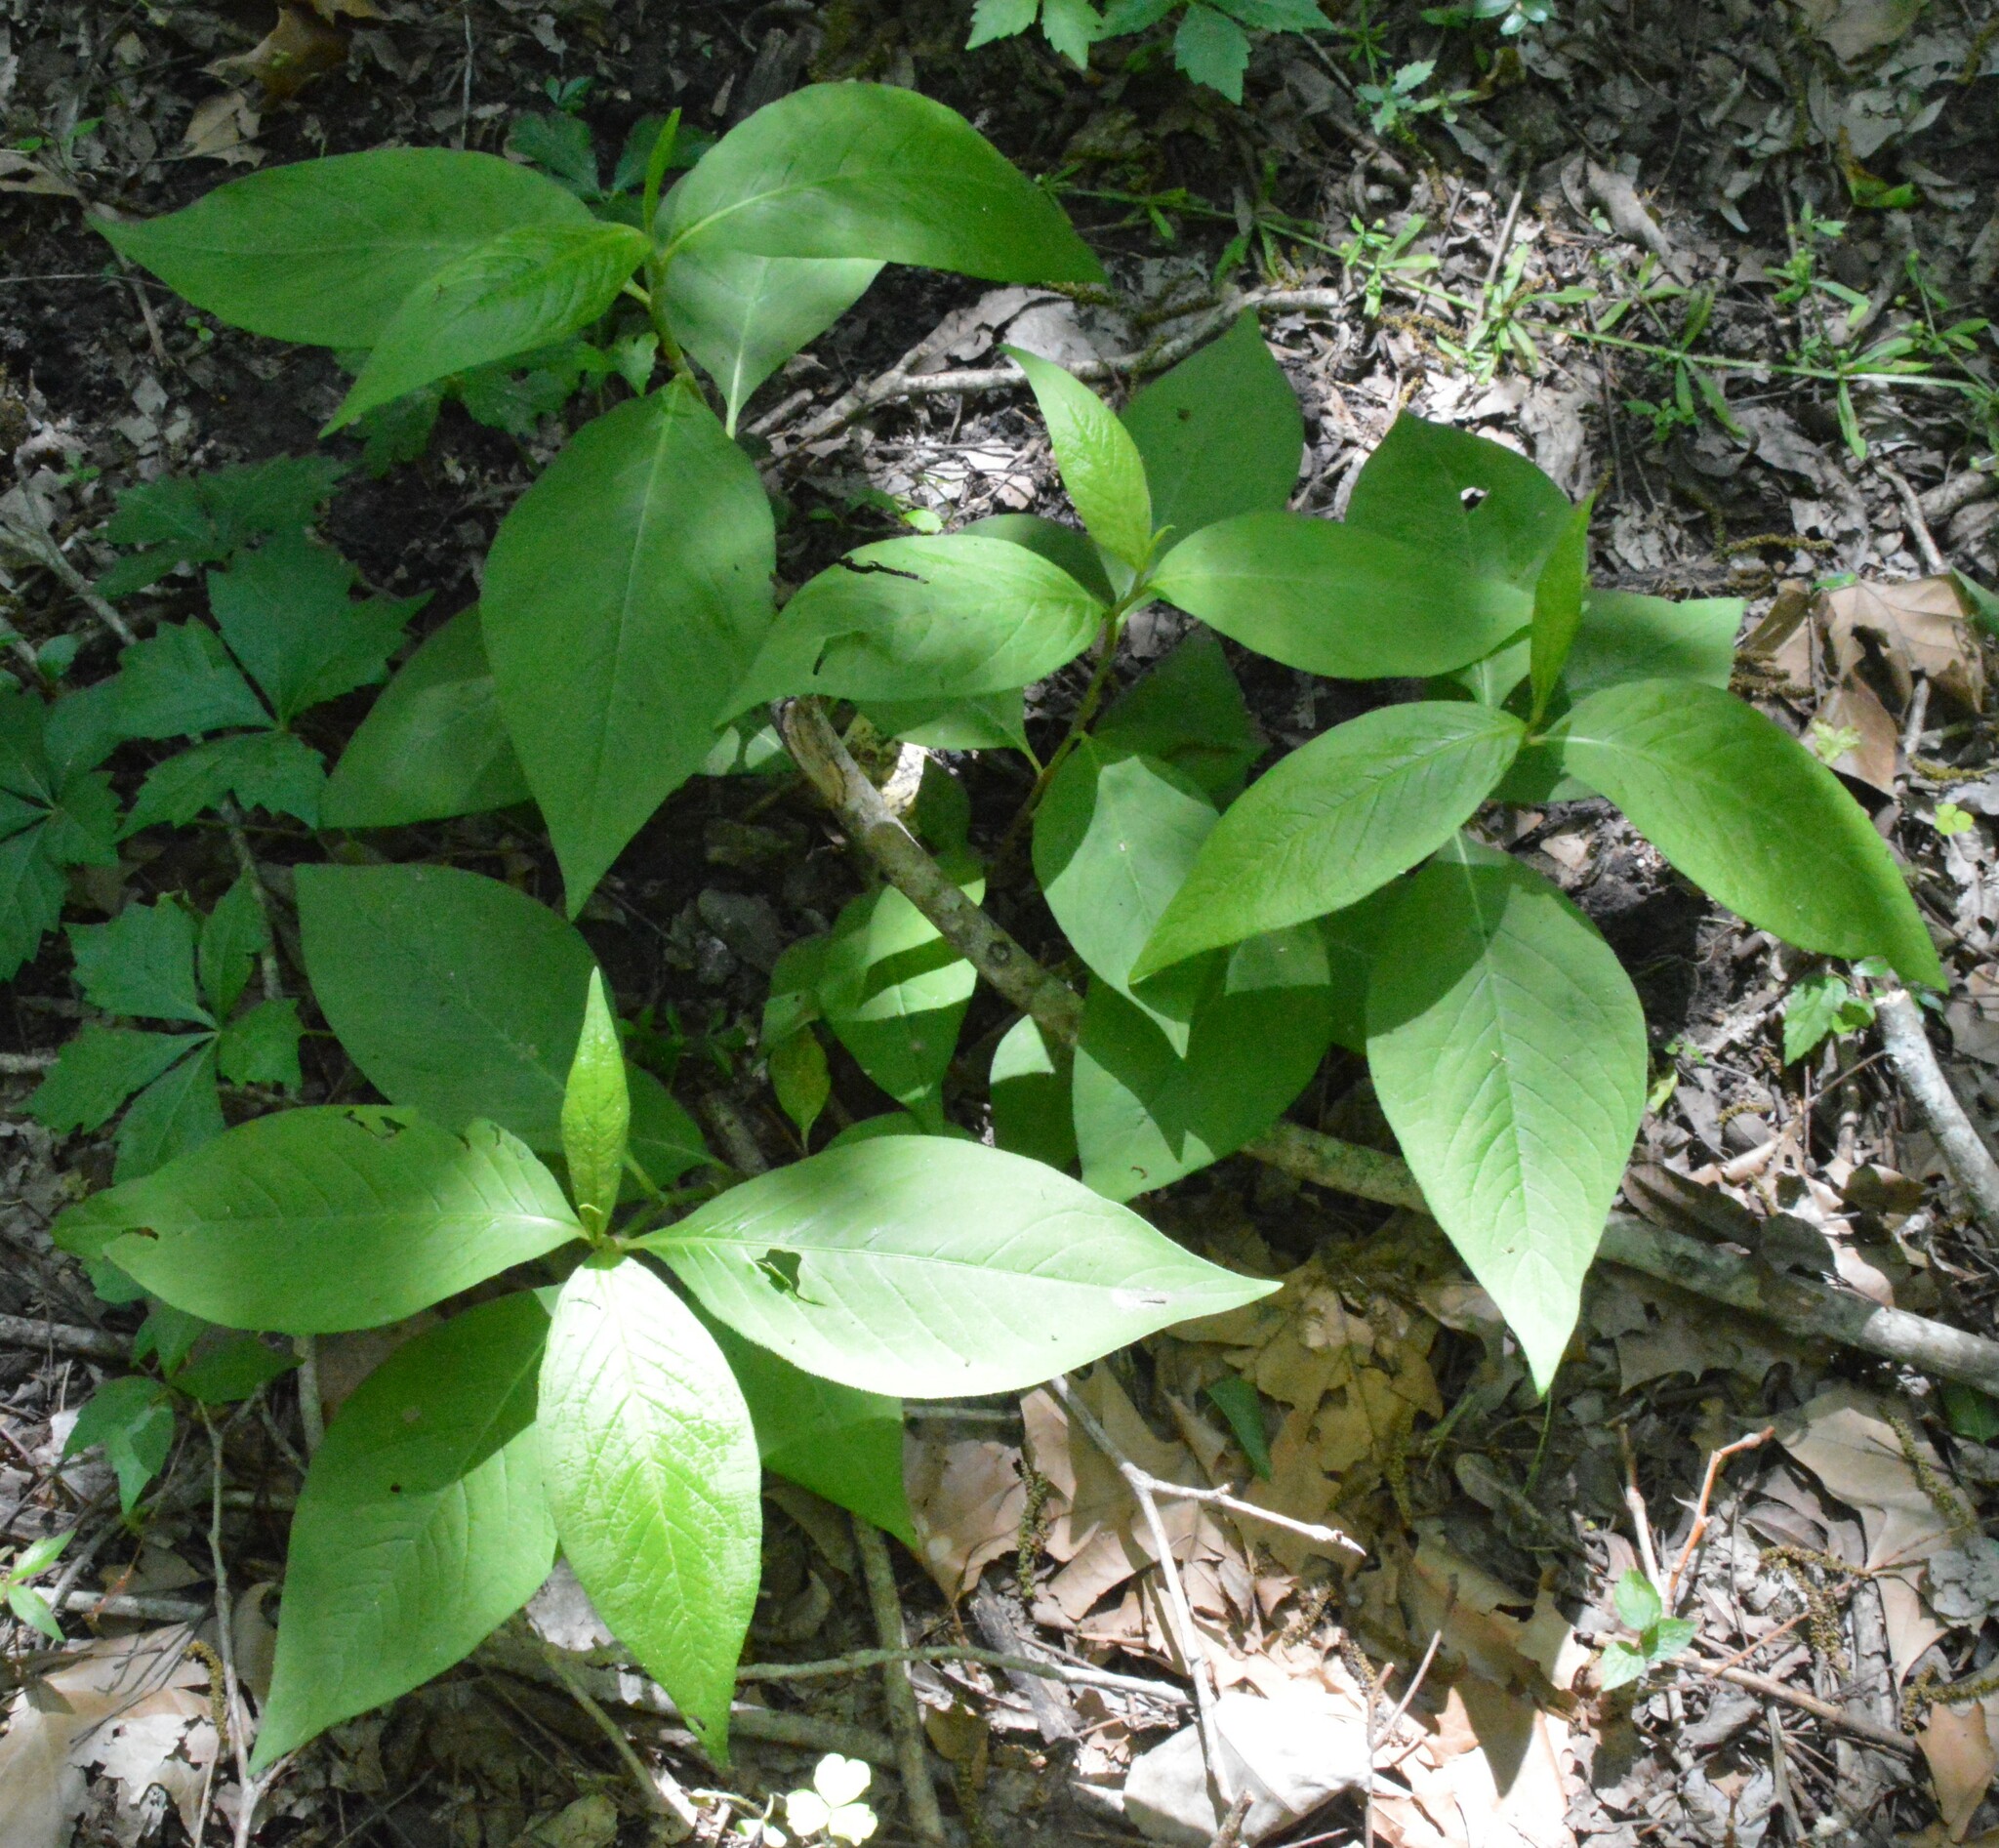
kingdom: Plantae
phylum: Tracheophyta
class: Magnoliopsida
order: Caryophyllales
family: Polygonaceae
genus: Persicaria
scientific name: Persicaria virginiana
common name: Jumpseed
